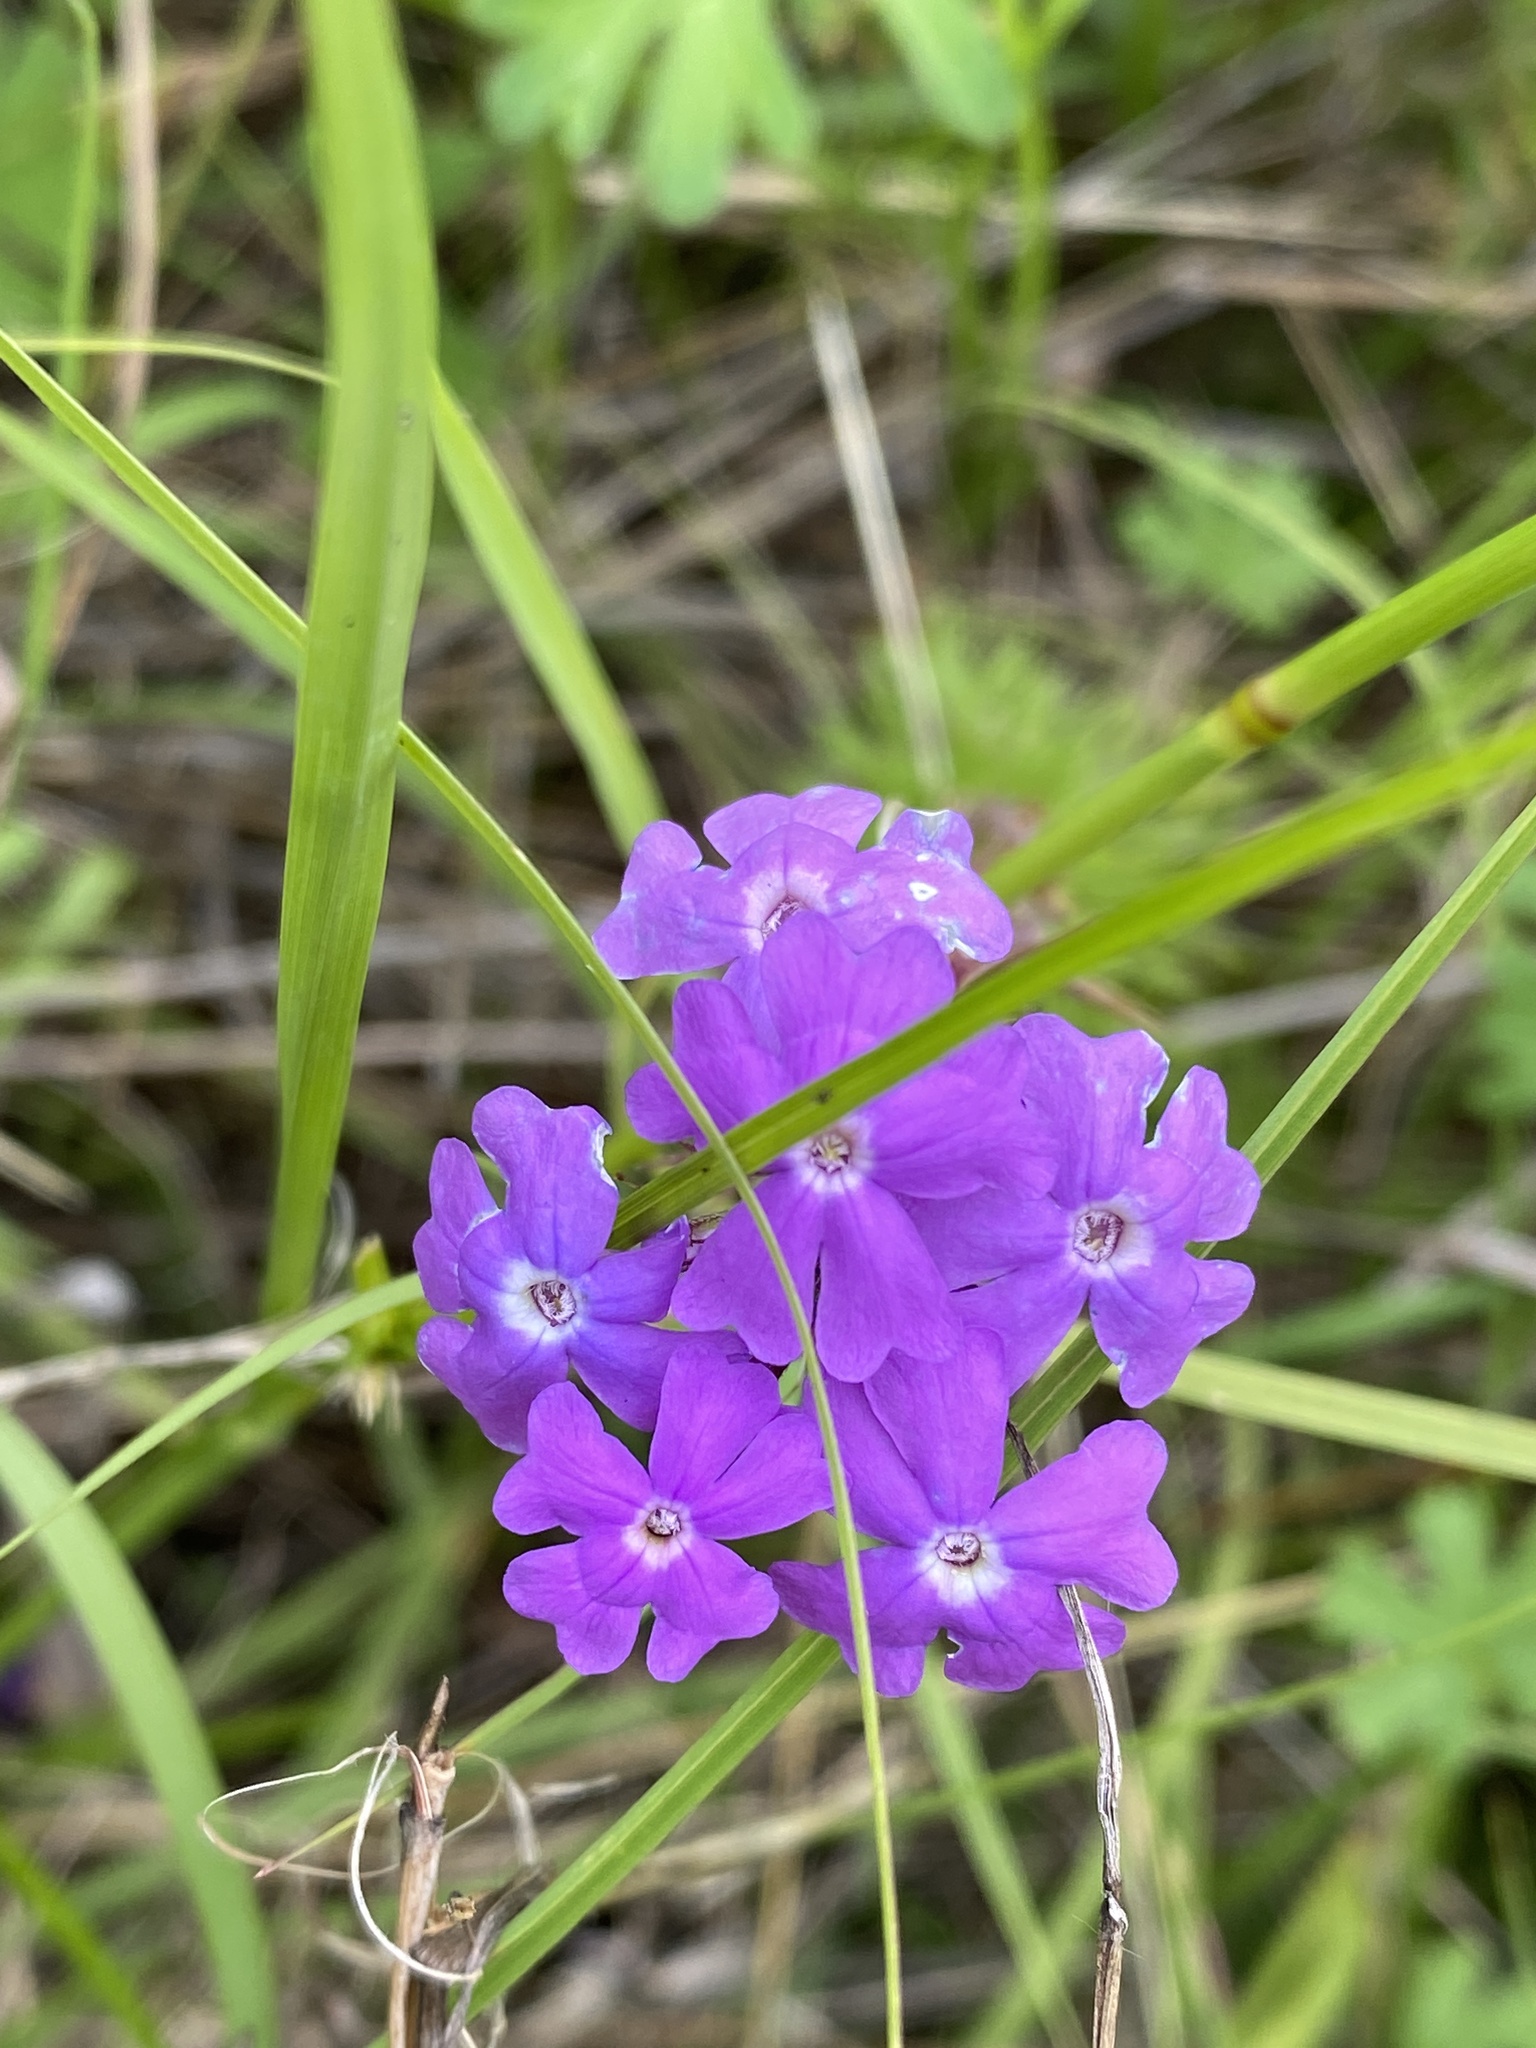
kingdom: Plantae
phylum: Tracheophyta
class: Magnoliopsida
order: Lamiales
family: Verbenaceae
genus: Verbena
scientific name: Verbena aristigera
